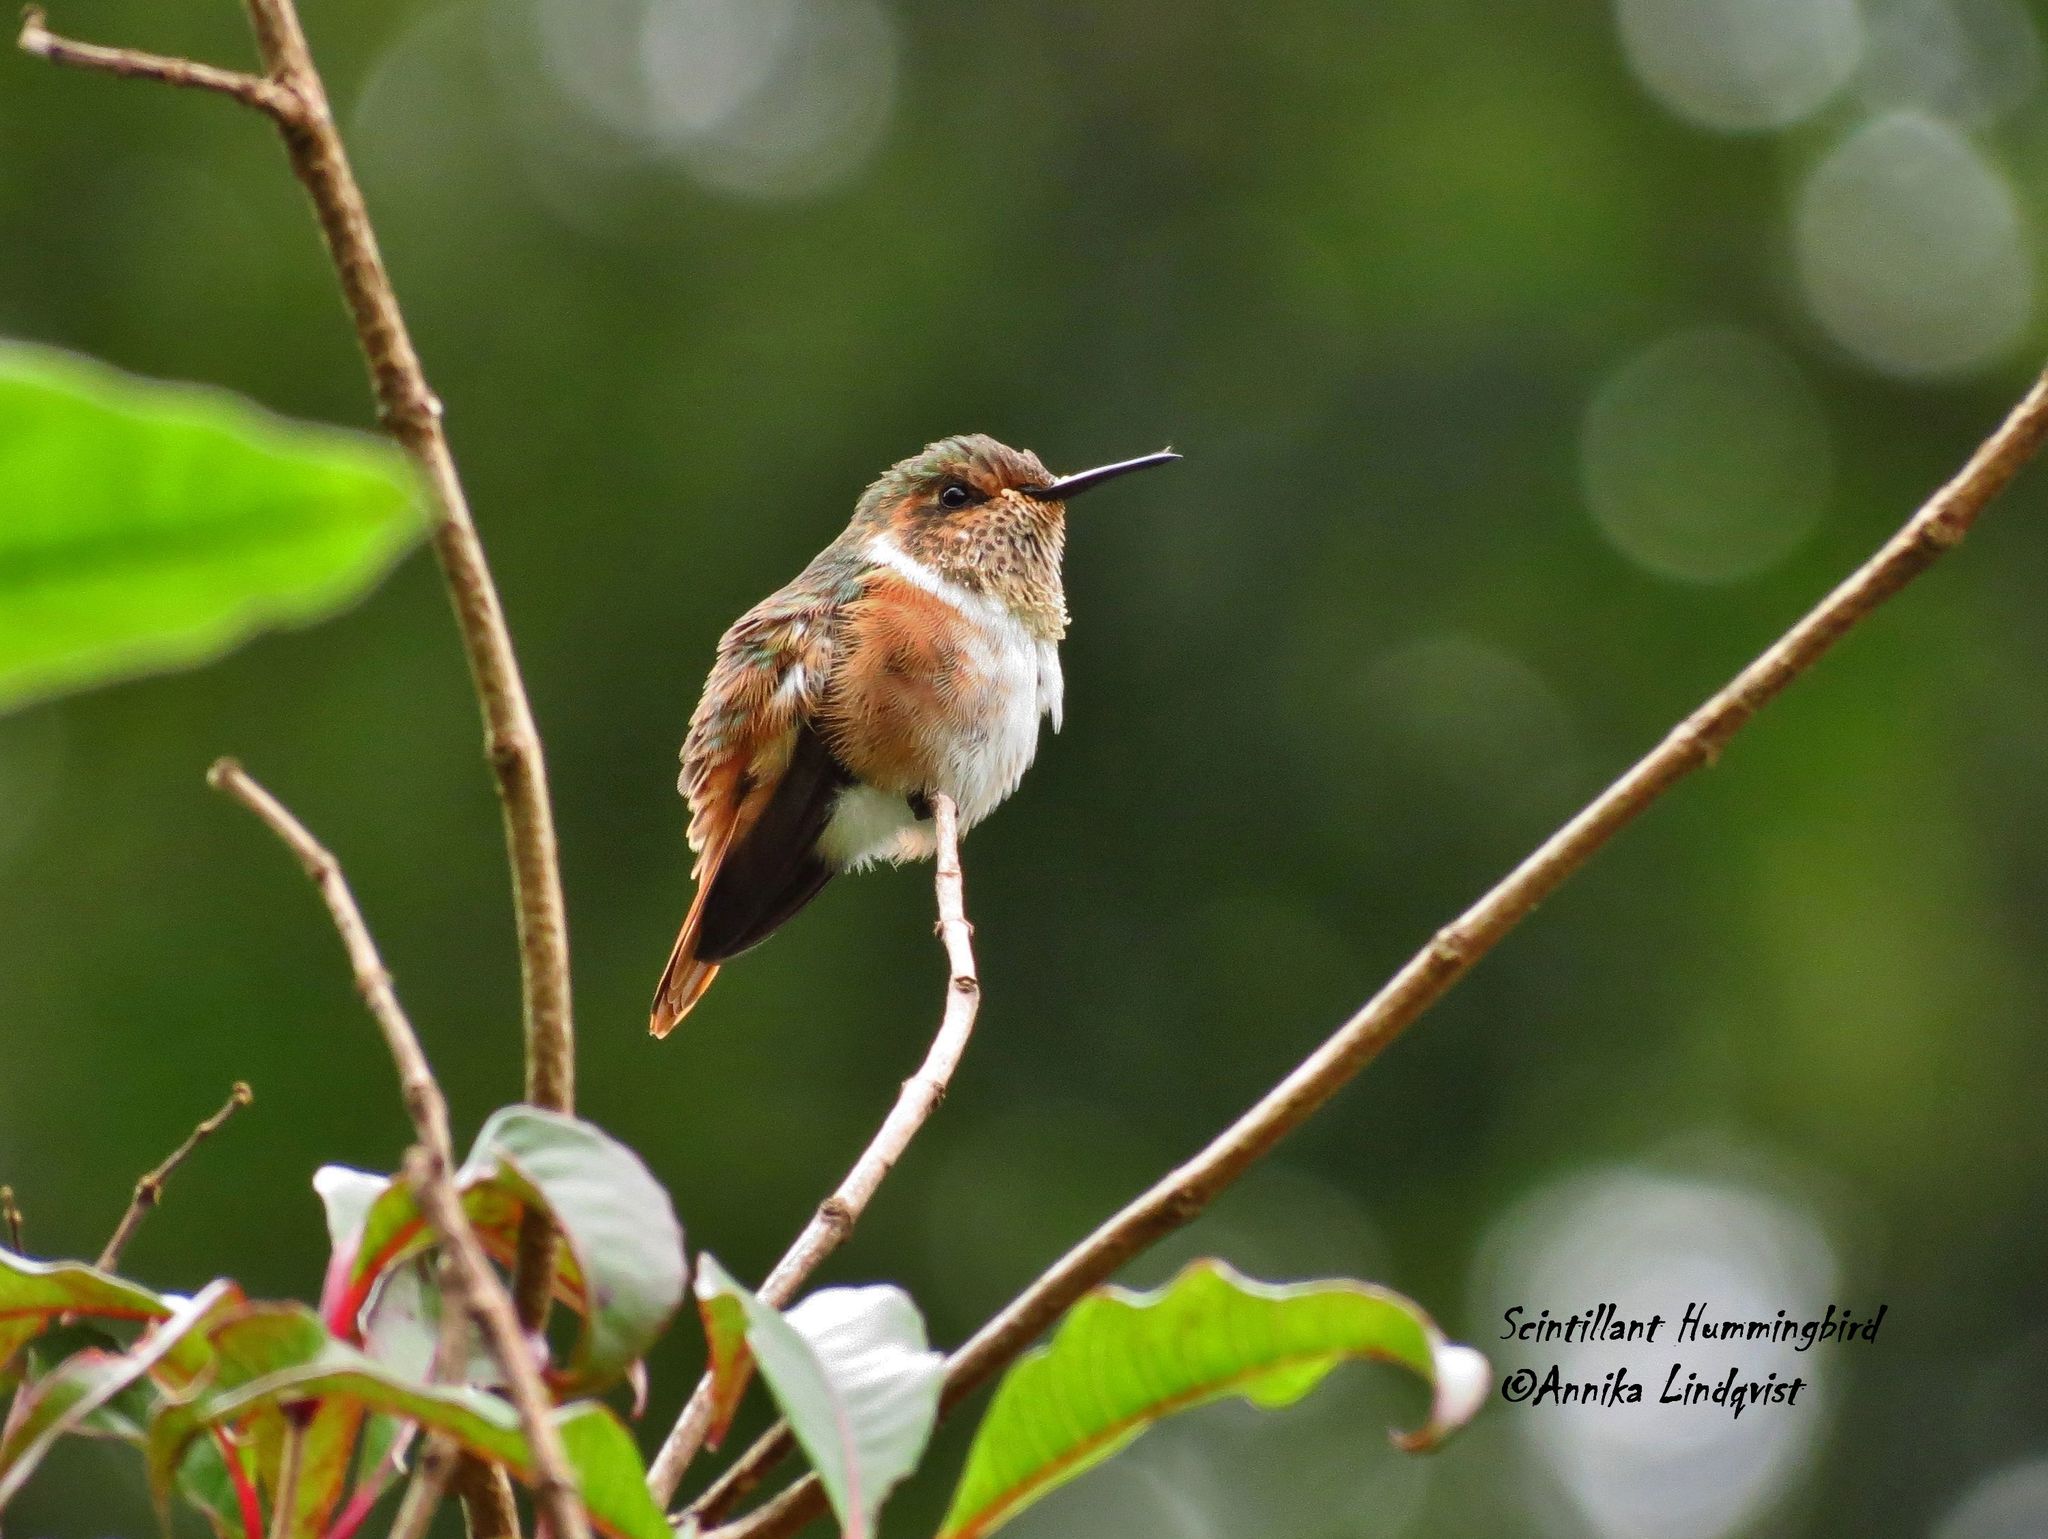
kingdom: Animalia
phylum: Chordata
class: Aves
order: Apodiformes
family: Trochilidae
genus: Selasphorus
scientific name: Selasphorus scintilla
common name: Scintillant hummingbird
